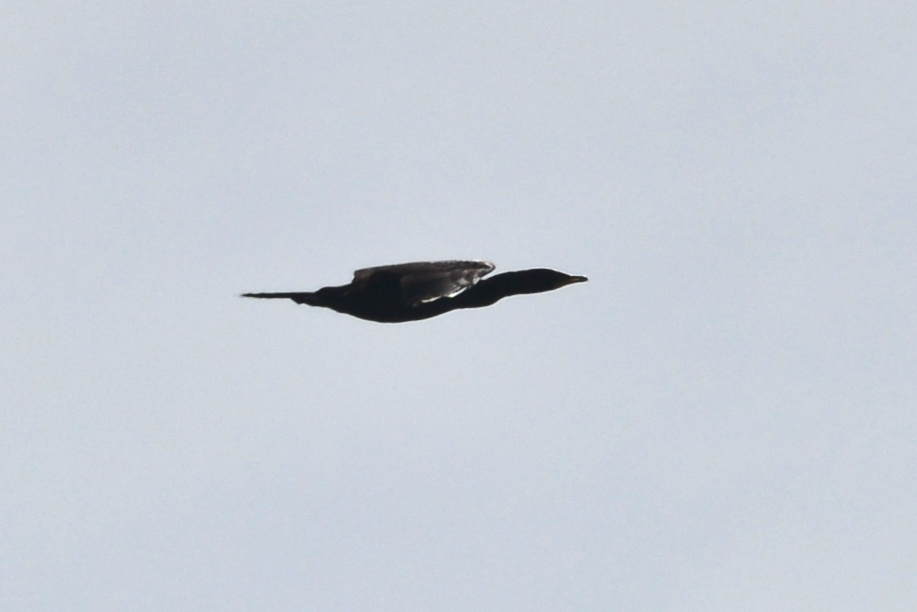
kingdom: Animalia
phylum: Chordata
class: Aves
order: Suliformes
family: Phalacrocoracidae
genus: Microcarbo
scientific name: Microcarbo melanoleucos
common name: Little pied cormorant
